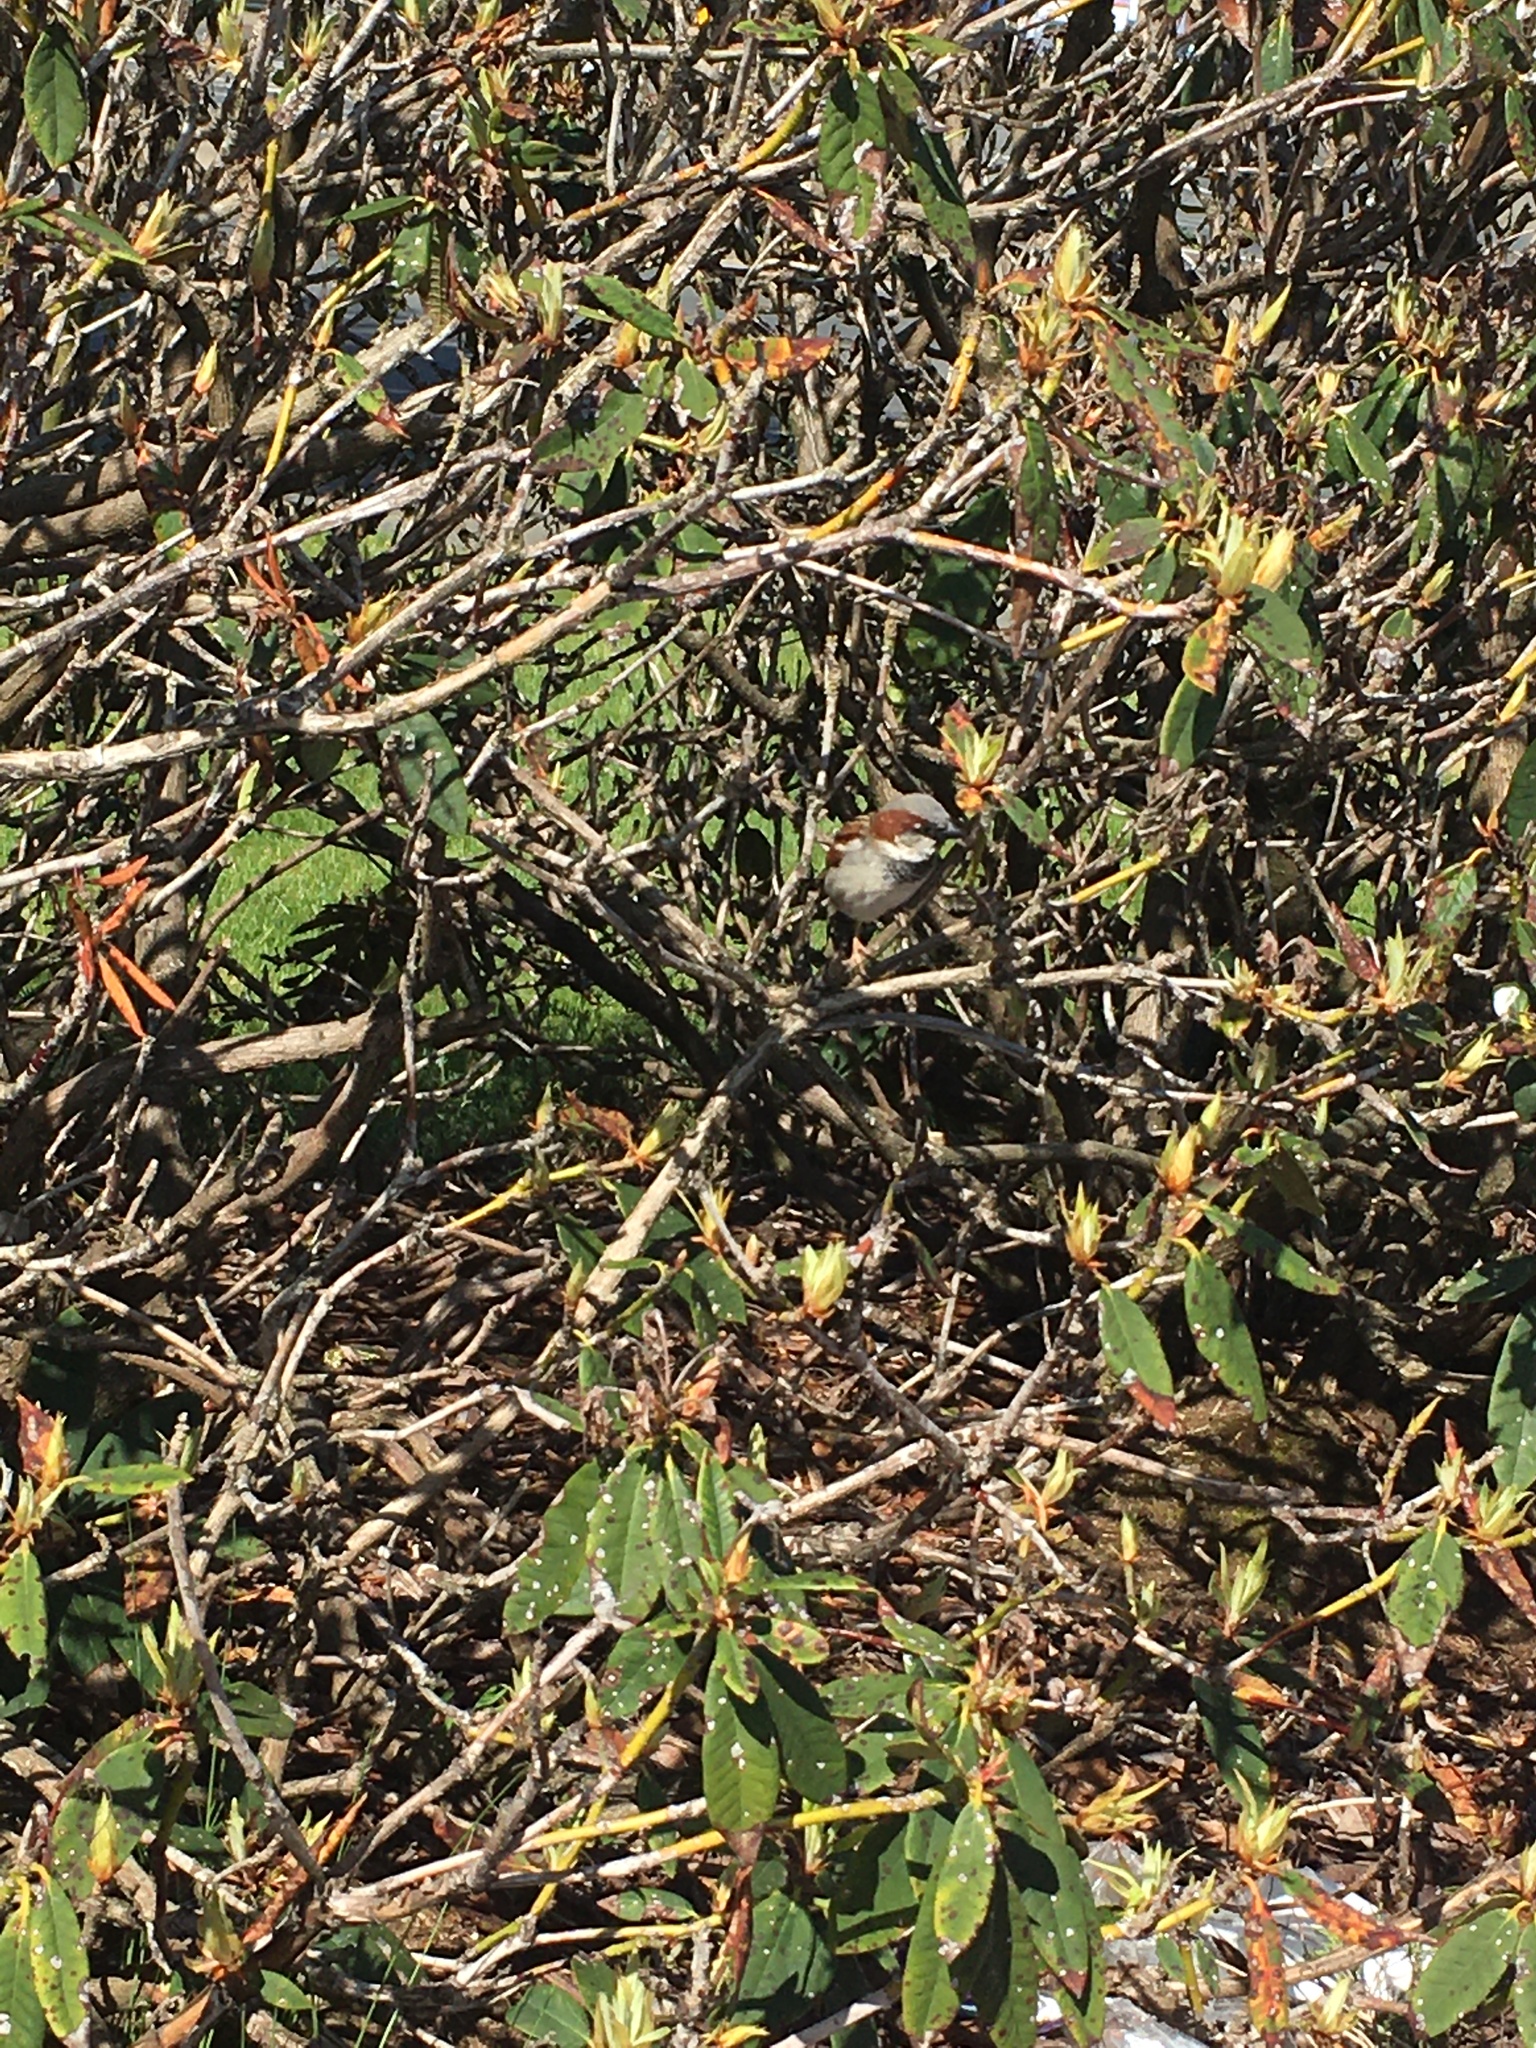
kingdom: Animalia
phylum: Chordata
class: Aves
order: Passeriformes
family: Passeridae
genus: Passer
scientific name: Passer domesticus
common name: House sparrow
